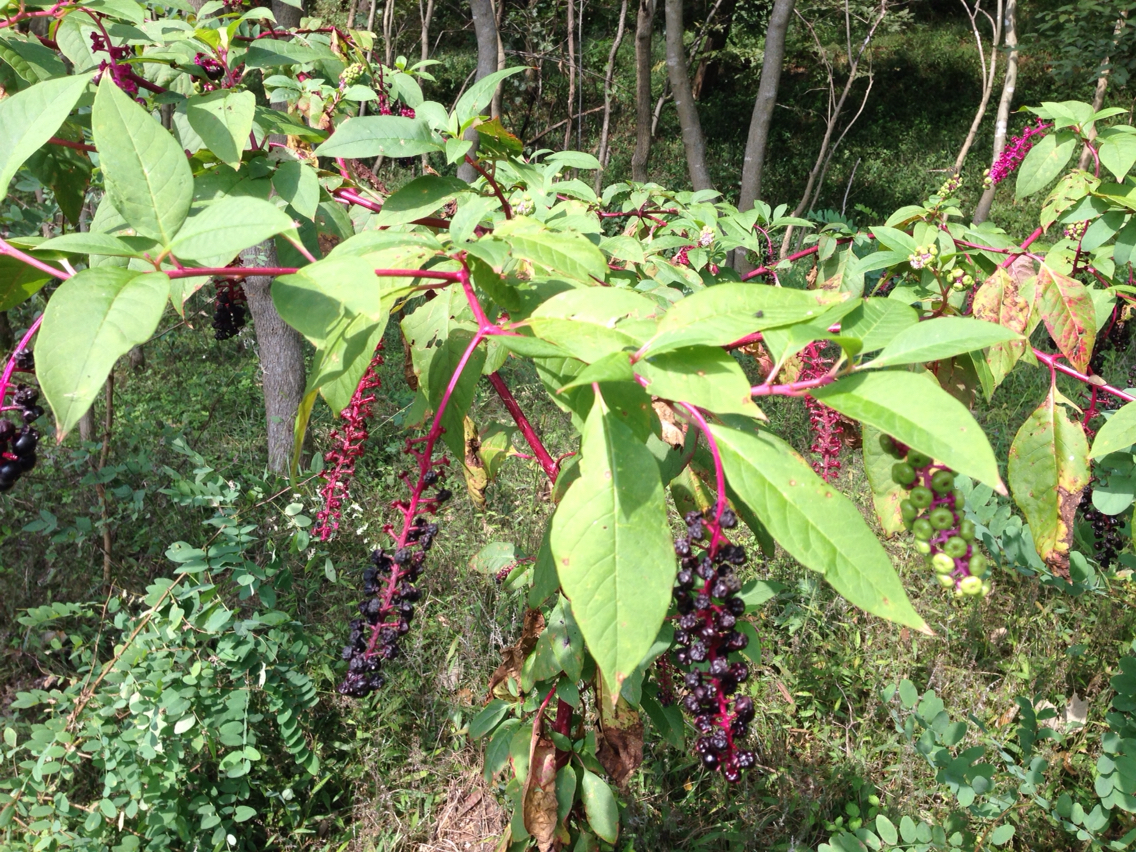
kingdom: Plantae
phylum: Tracheophyta
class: Magnoliopsida
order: Caryophyllales
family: Phytolaccaceae
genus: Phytolacca
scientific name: Phytolacca americana
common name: American pokeweed
